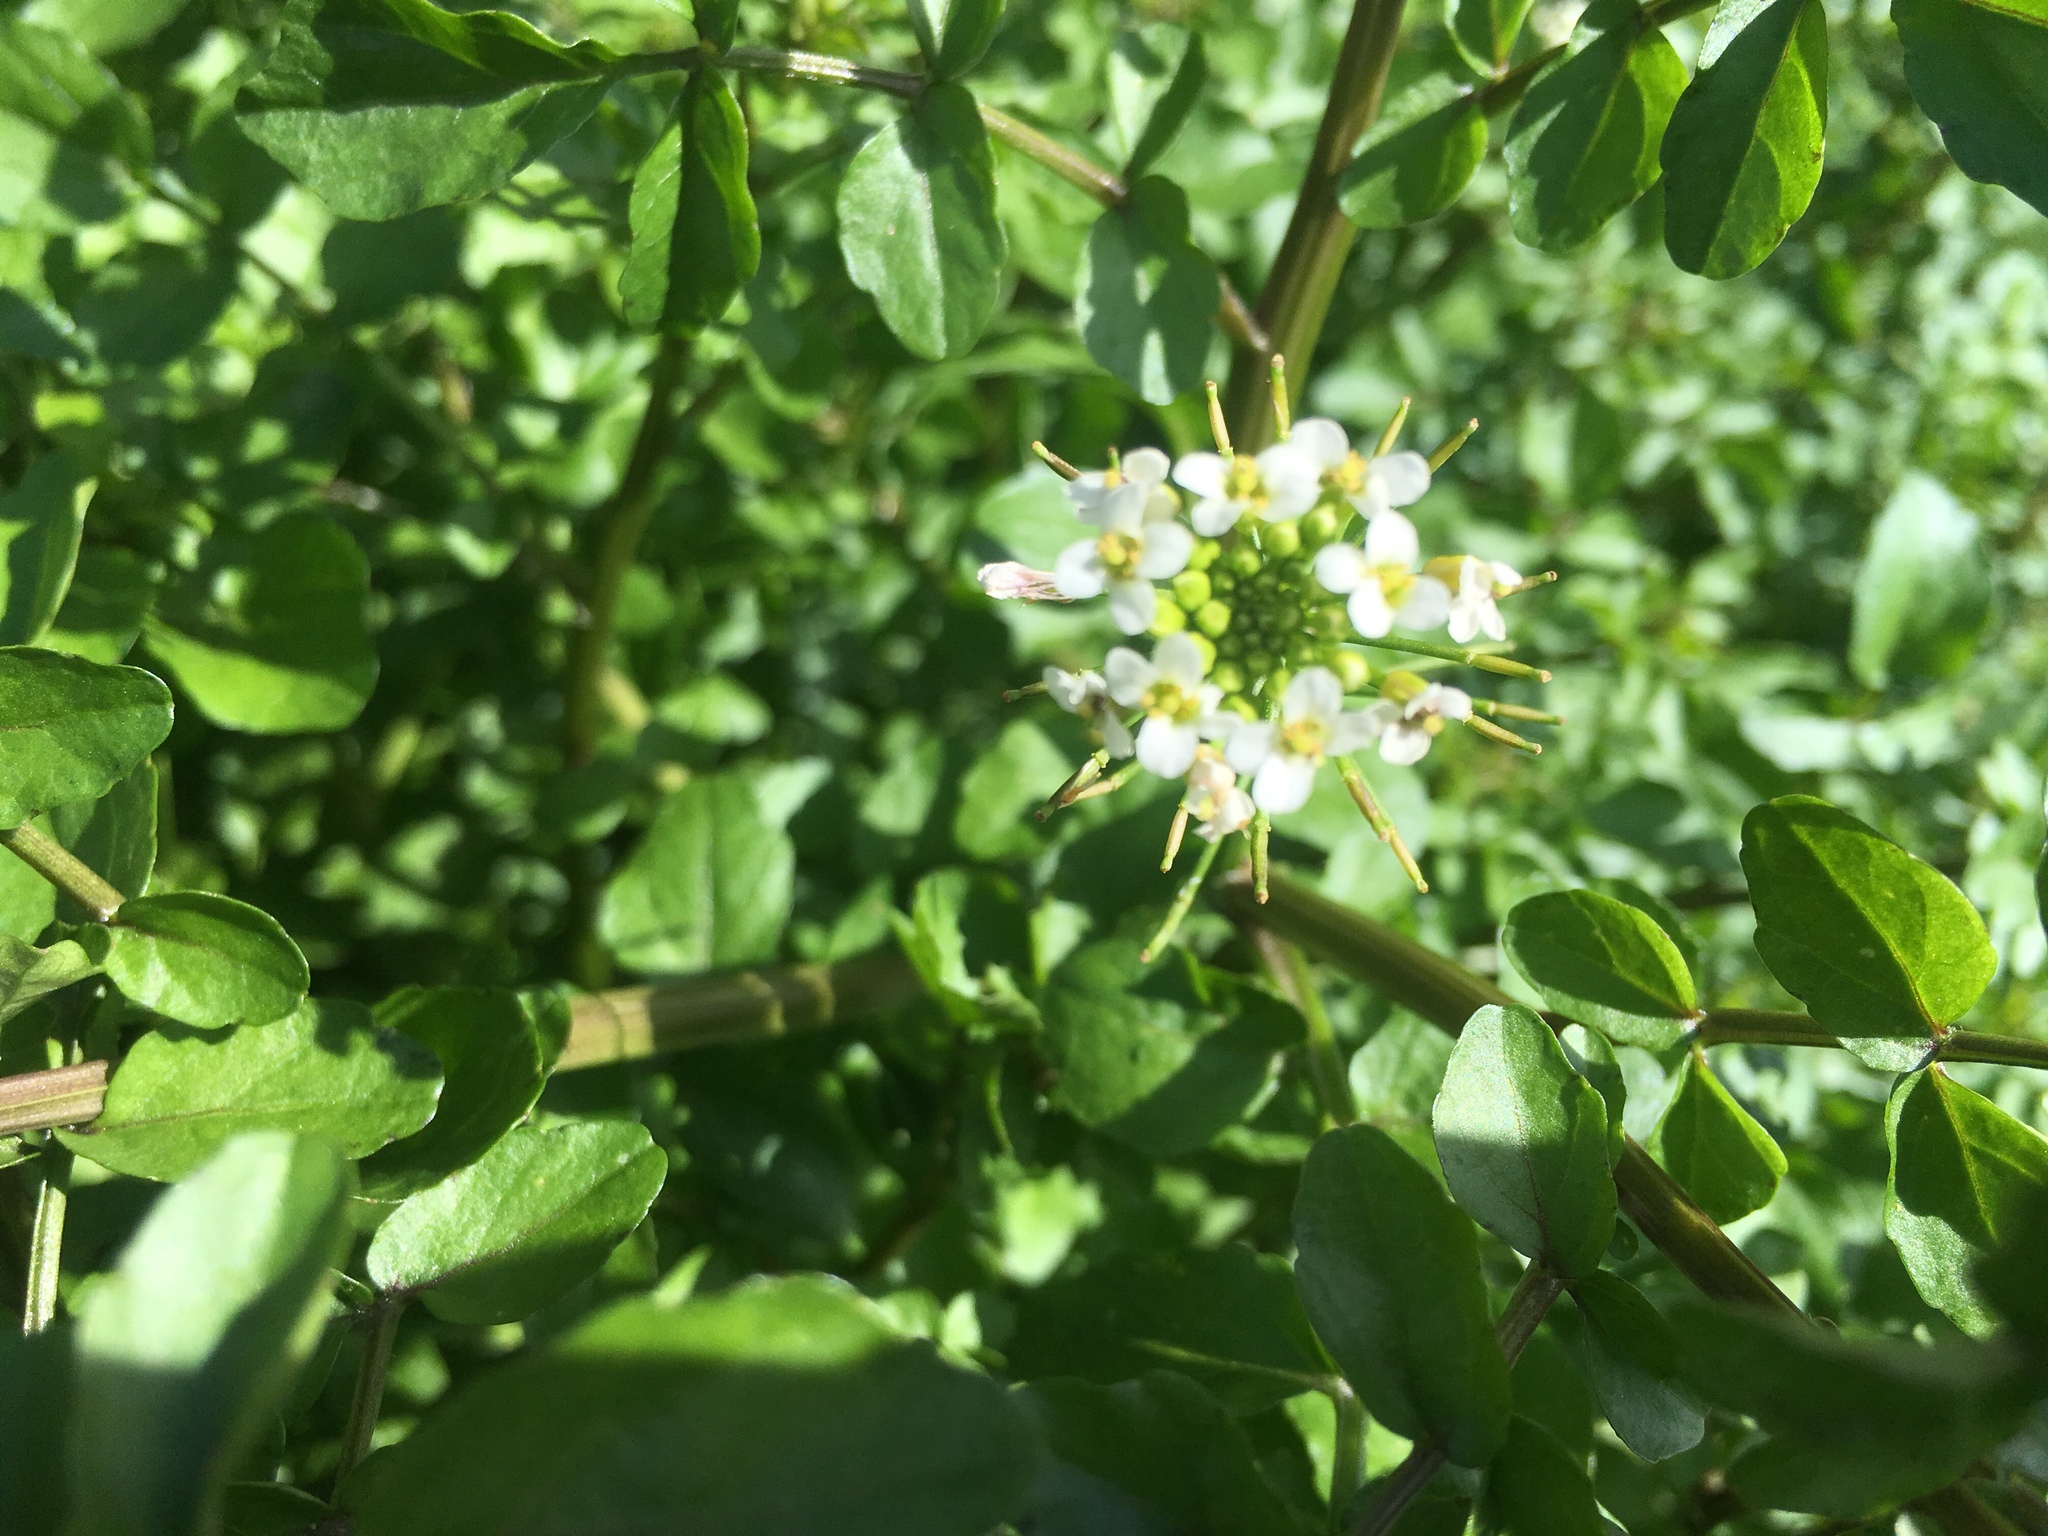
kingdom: Plantae
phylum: Tracheophyta
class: Magnoliopsida
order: Brassicales
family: Brassicaceae
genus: Nasturtium
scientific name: Nasturtium officinale
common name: Watercress
